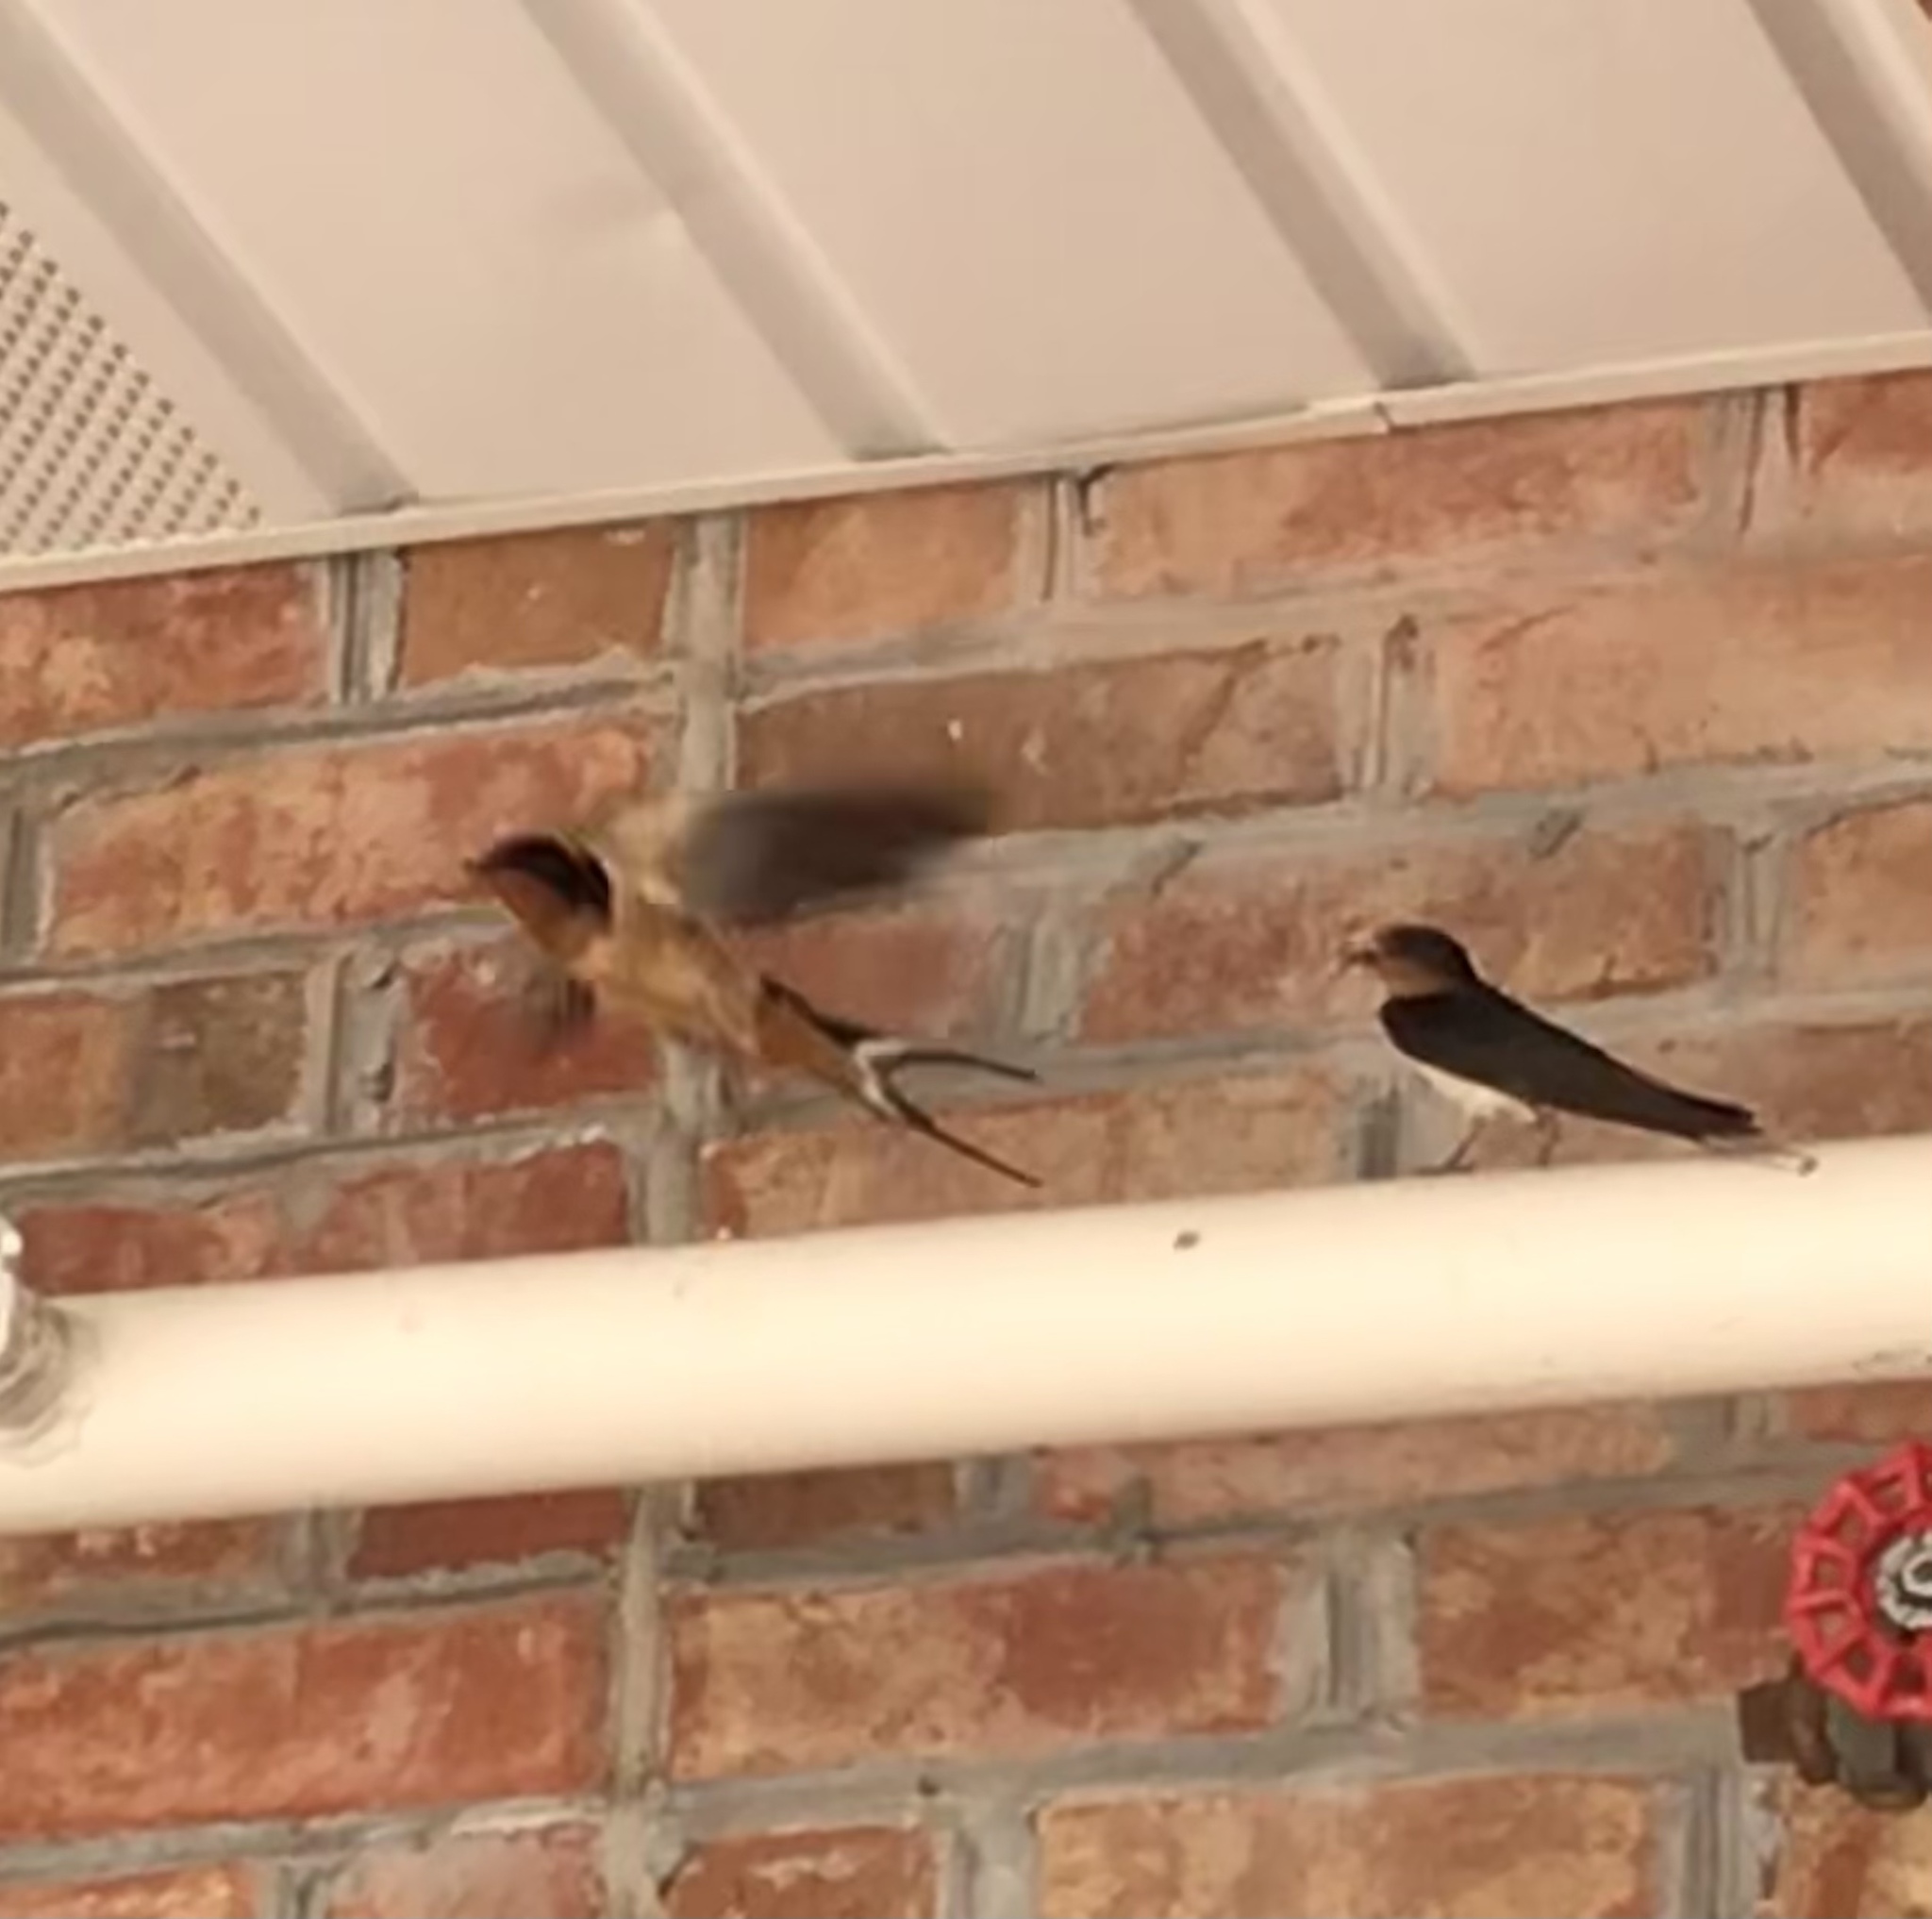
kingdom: Animalia
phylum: Chordata
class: Aves
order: Passeriformes
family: Hirundinidae
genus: Hirundo
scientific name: Hirundo rustica
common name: Barn swallow
